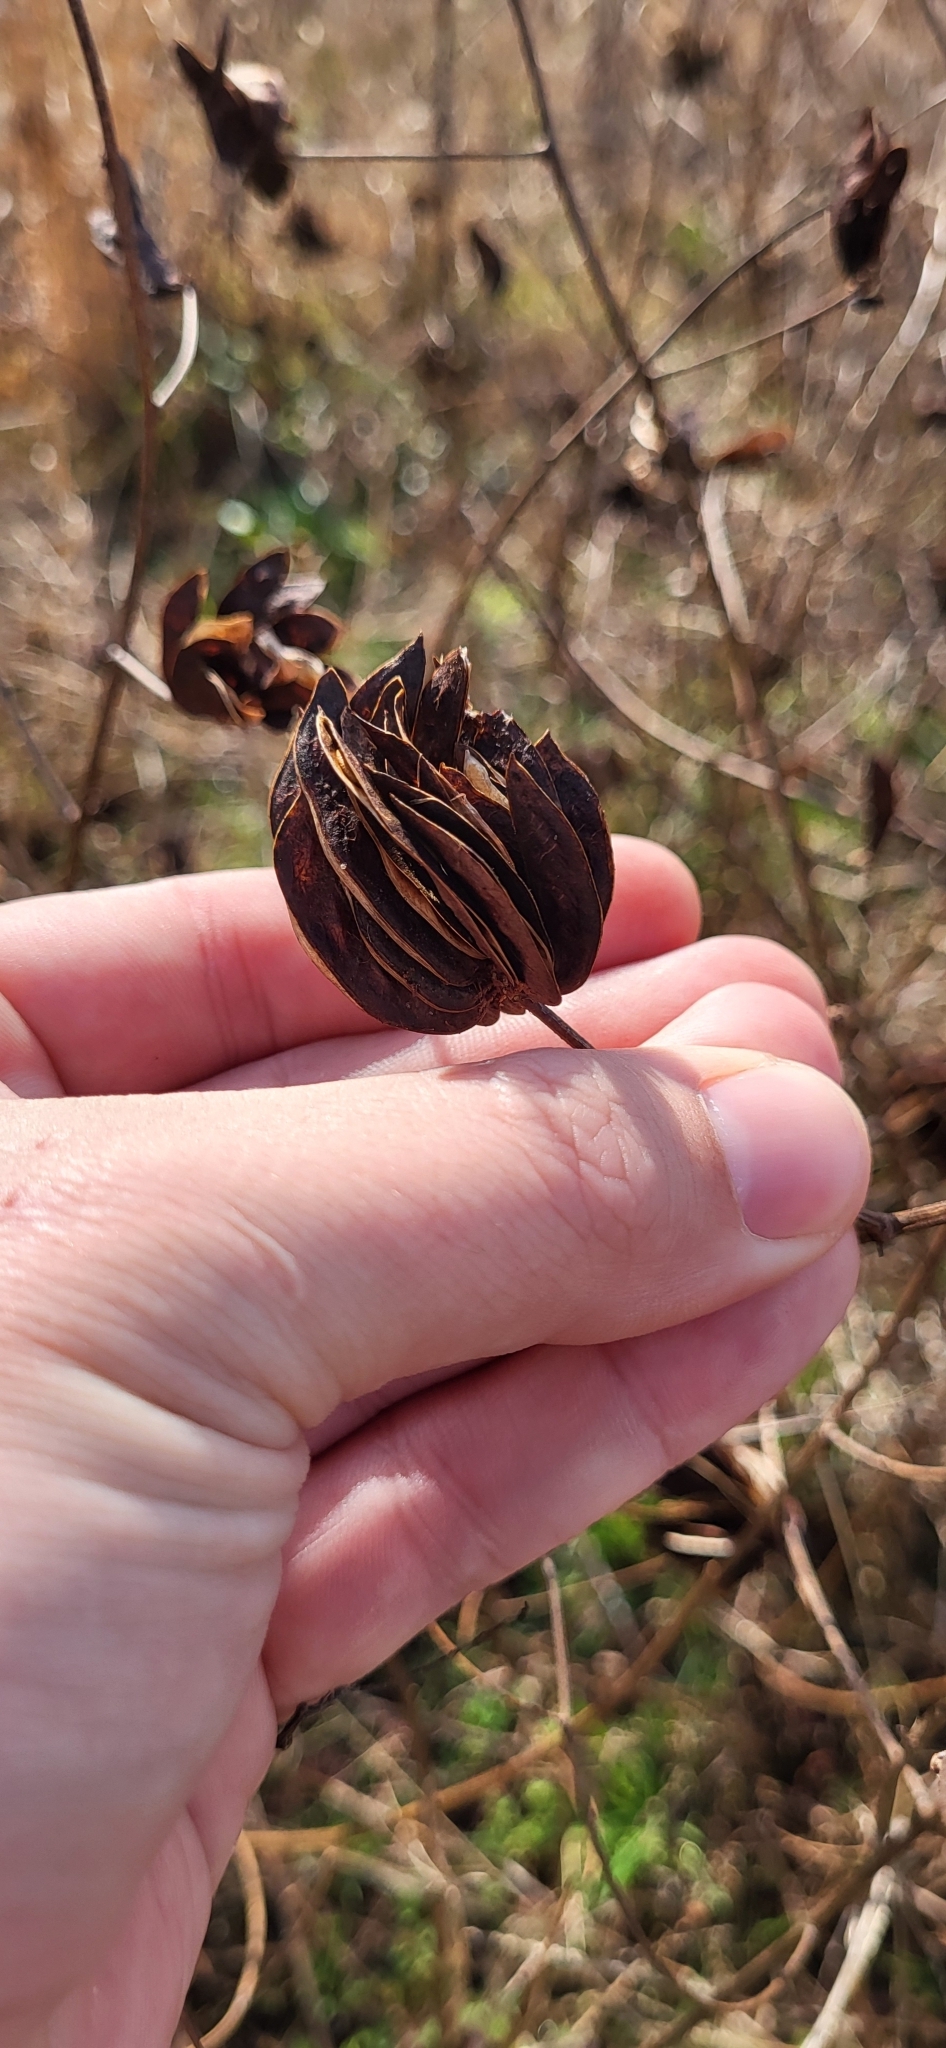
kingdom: Plantae
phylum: Tracheophyta
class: Magnoliopsida
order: Fabales
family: Fabaceae
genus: Desmanthus
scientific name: Desmanthus illinoensis
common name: Illinois bundle-flower
